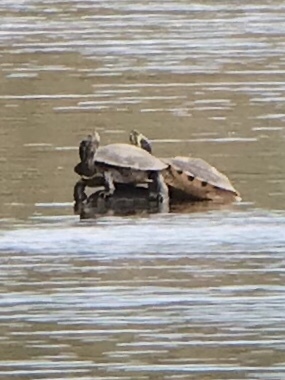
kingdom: Animalia
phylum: Chordata
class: Testudines
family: Emydidae
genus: Trachemys
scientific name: Trachemys scripta
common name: Slider
